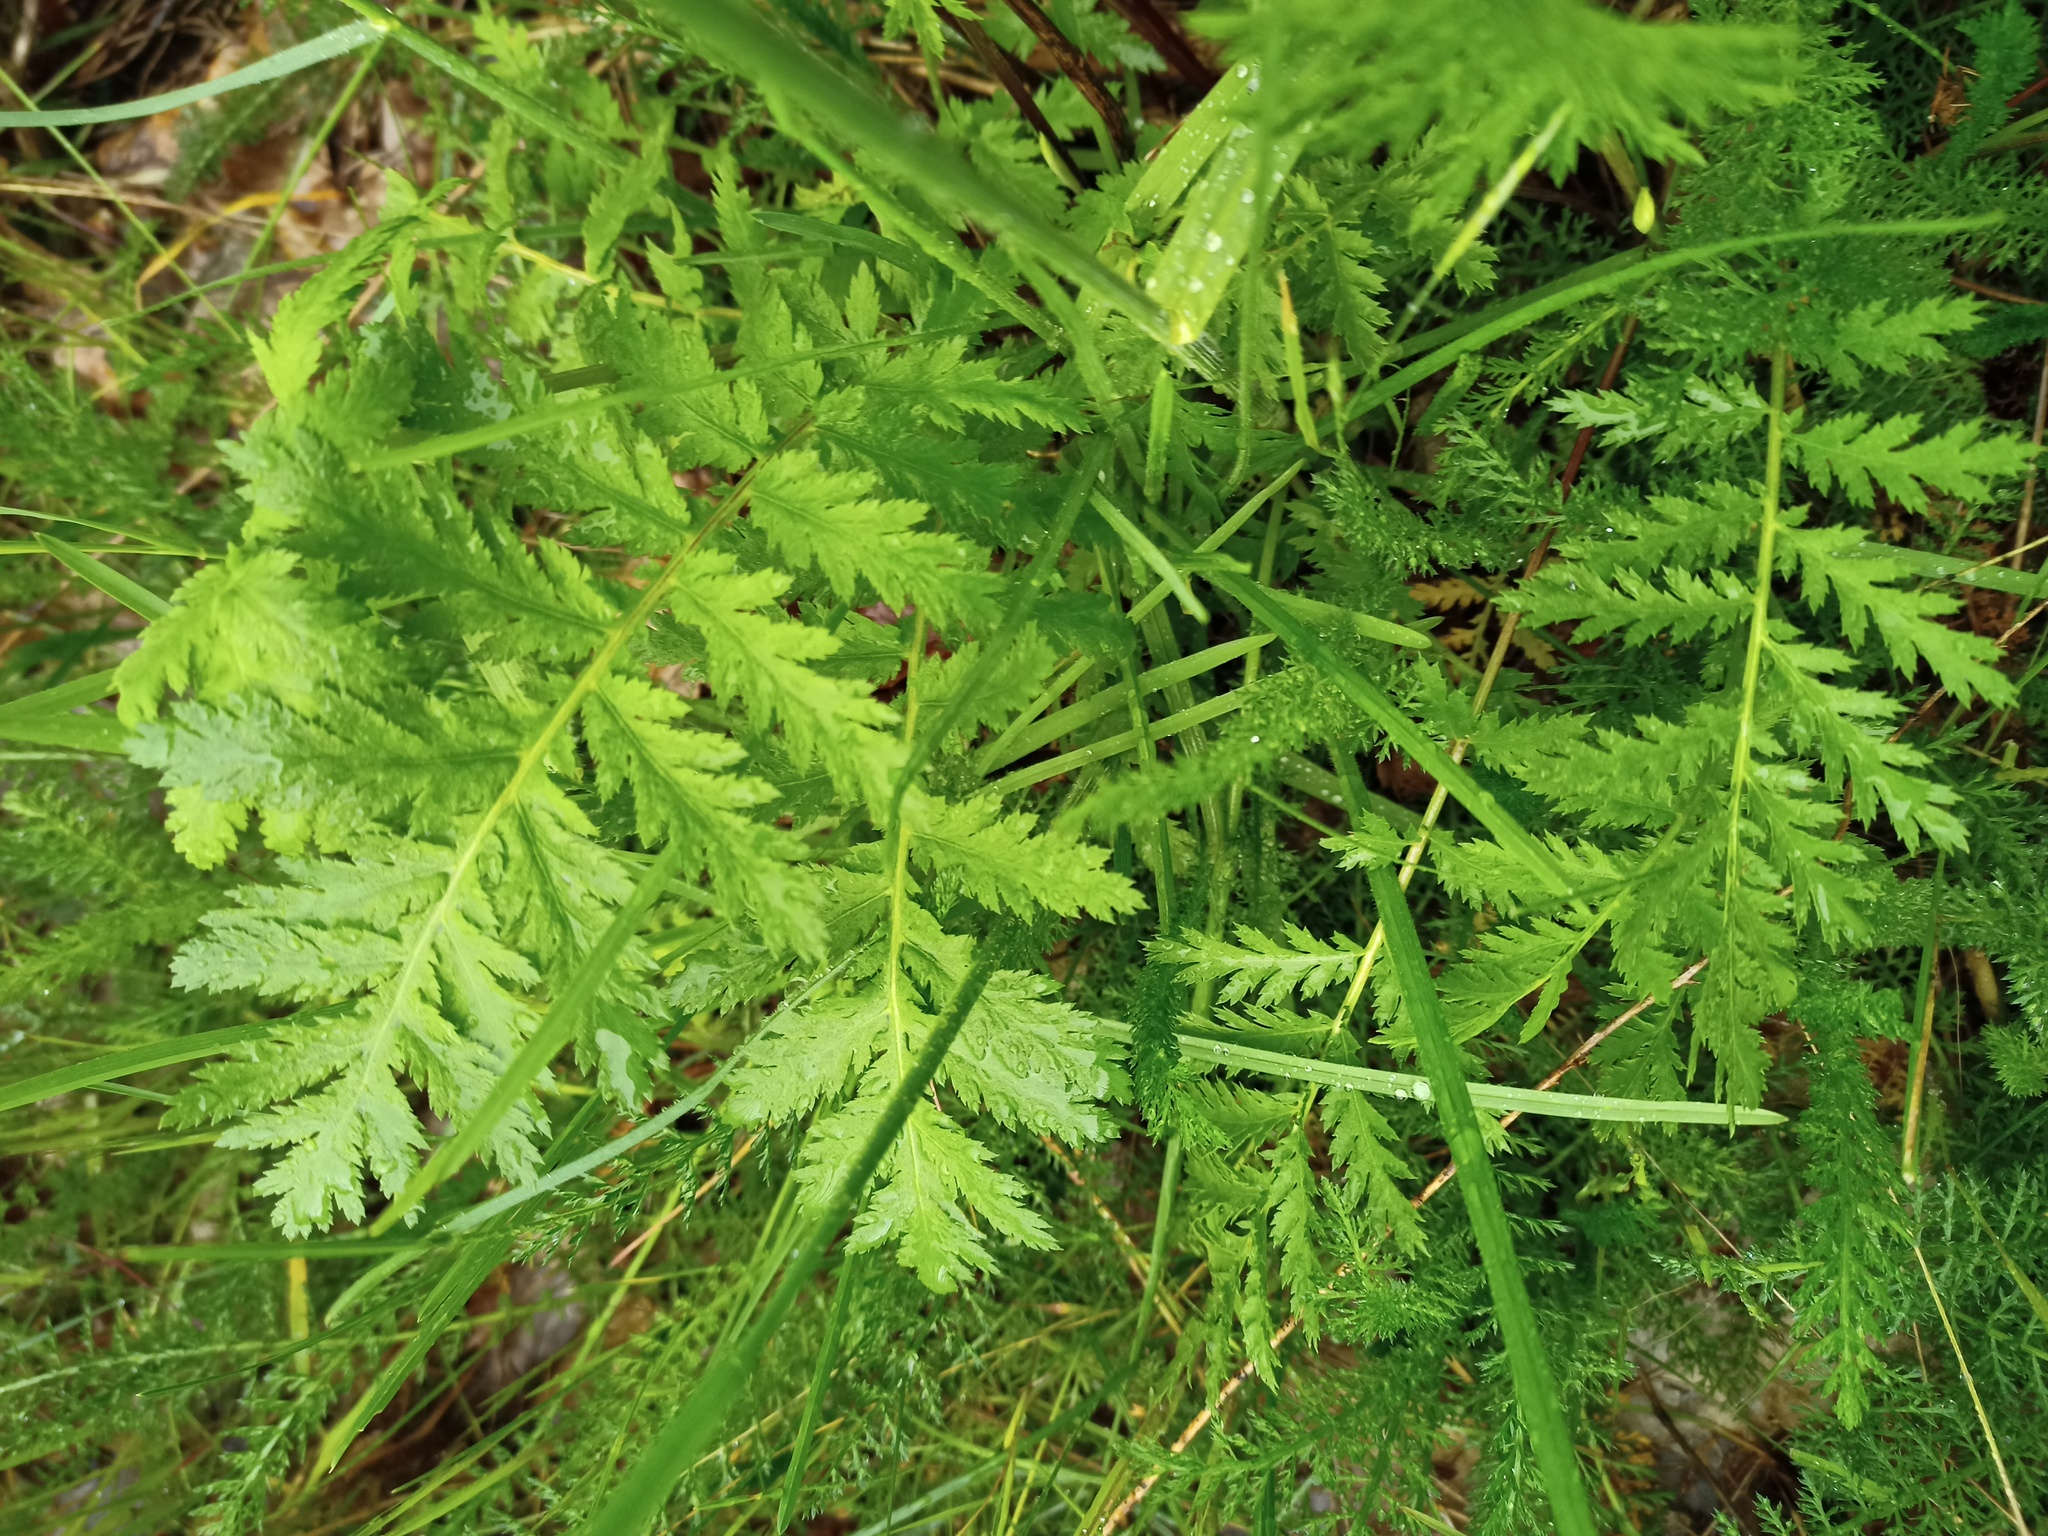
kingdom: Plantae
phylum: Tracheophyta
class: Magnoliopsida
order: Asterales
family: Asteraceae
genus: Tanacetum
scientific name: Tanacetum vulgare
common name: Common tansy
